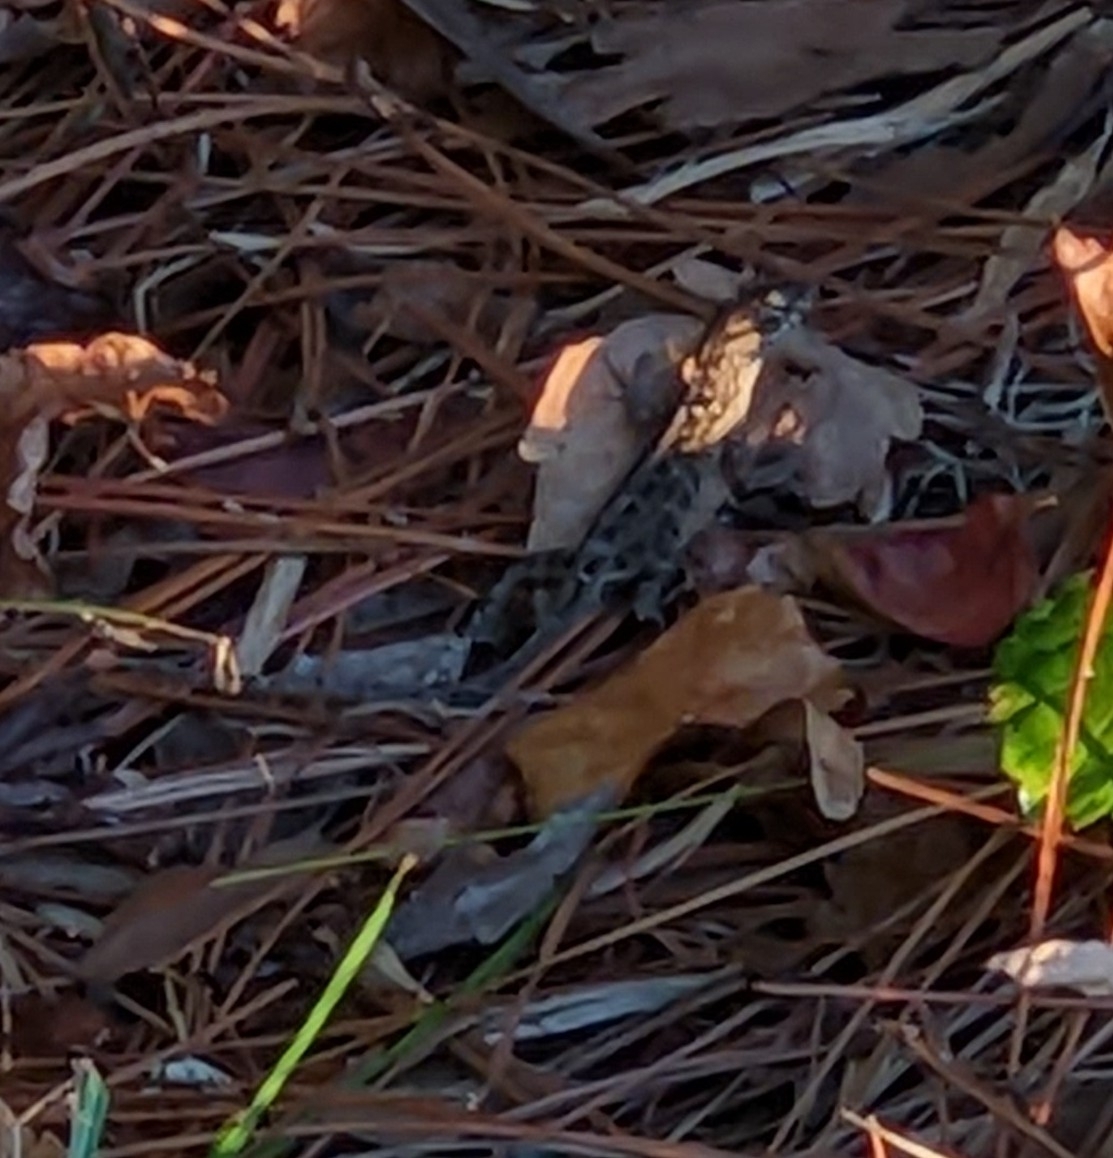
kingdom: Animalia
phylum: Chordata
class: Squamata
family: Dactyloidae
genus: Anolis
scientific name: Anolis sagrei
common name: Brown anole
